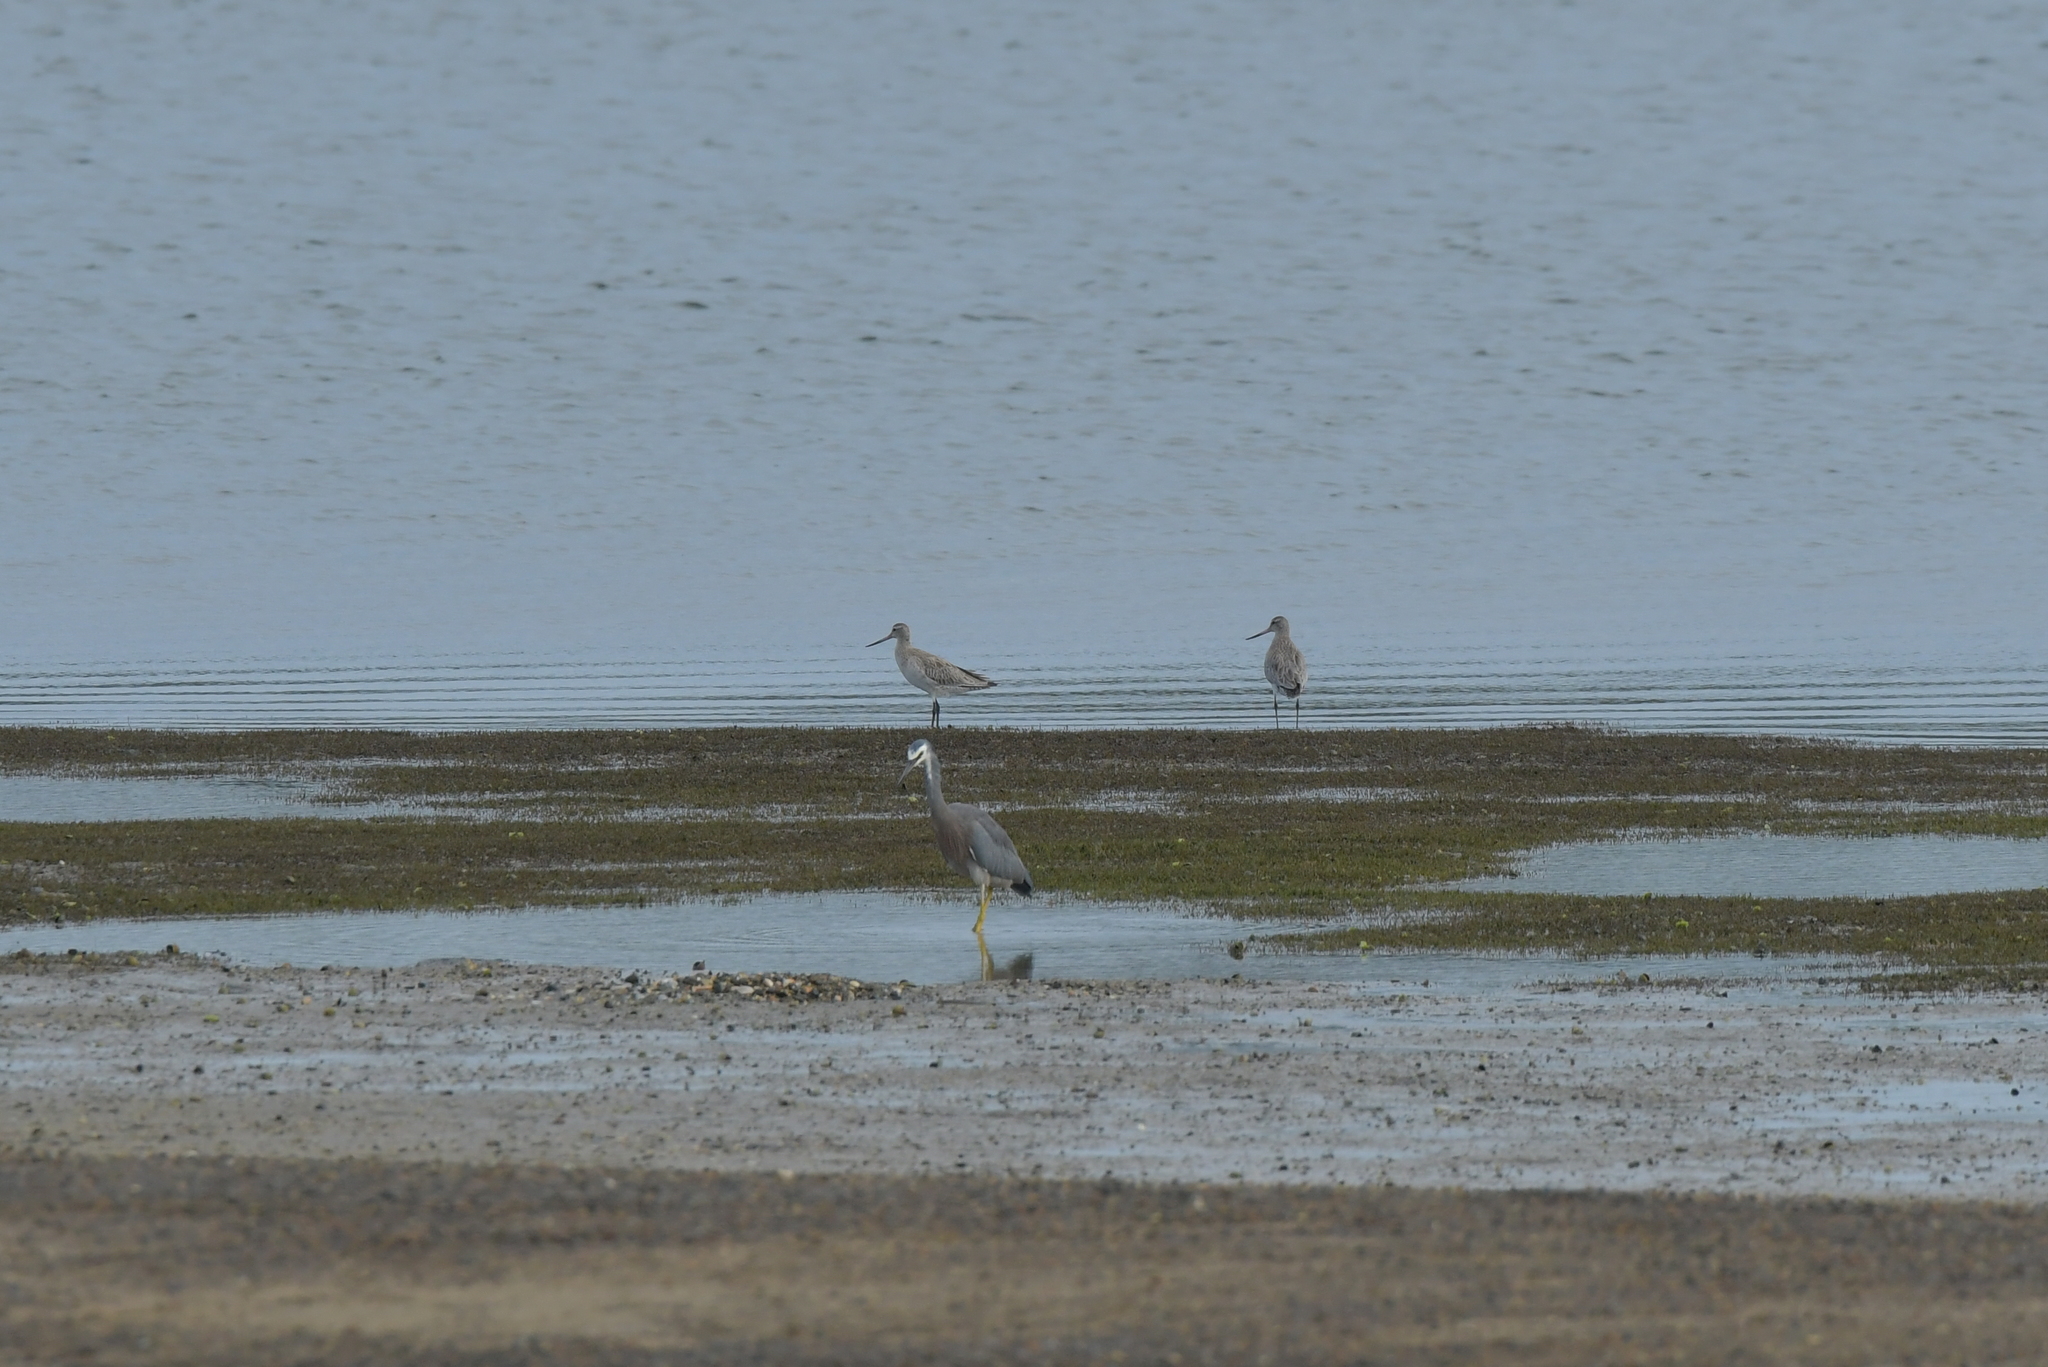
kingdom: Animalia
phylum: Chordata
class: Aves
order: Pelecaniformes
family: Ardeidae
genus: Egretta
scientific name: Egretta novaehollandiae
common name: White-faced heron
